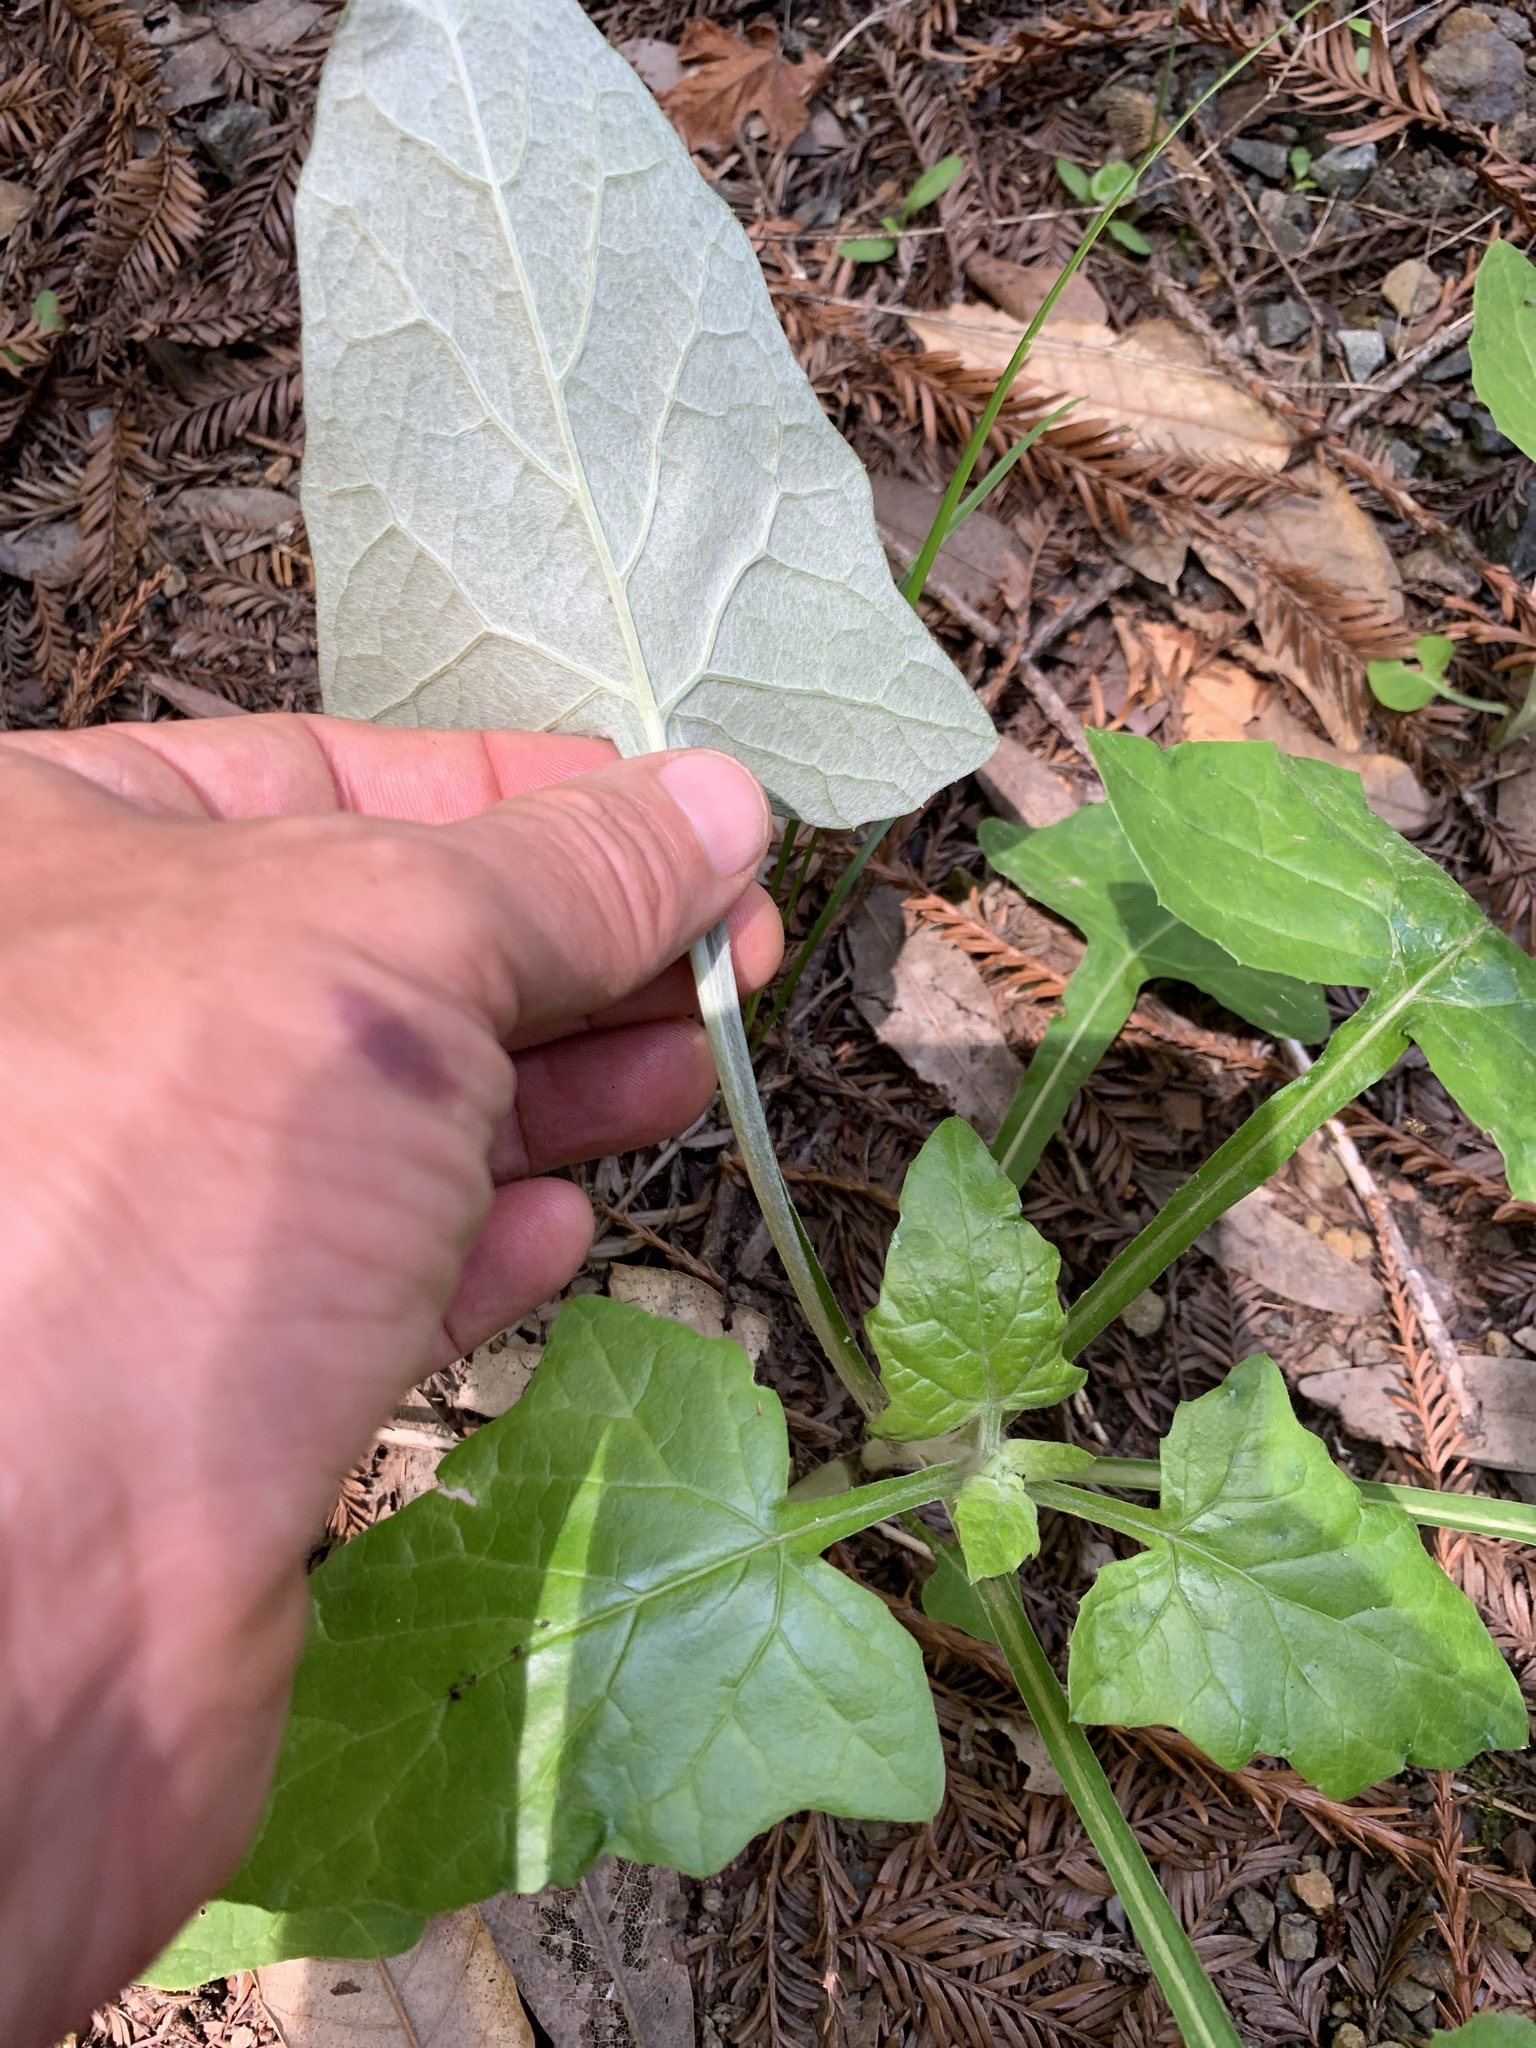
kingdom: Plantae
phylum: Tracheophyta
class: Magnoliopsida
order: Asterales
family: Asteraceae
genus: Adenocaulon
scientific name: Adenocaulon bicolor
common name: Trailplant
